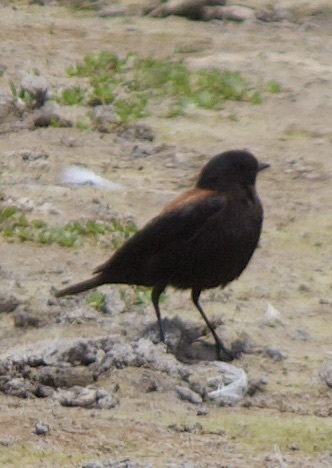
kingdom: Animalia
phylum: Chordata
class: Aves
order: Passeriformes
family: Tyrannidae
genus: Lessonia
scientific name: Lessonia rufa
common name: Austral negrito
